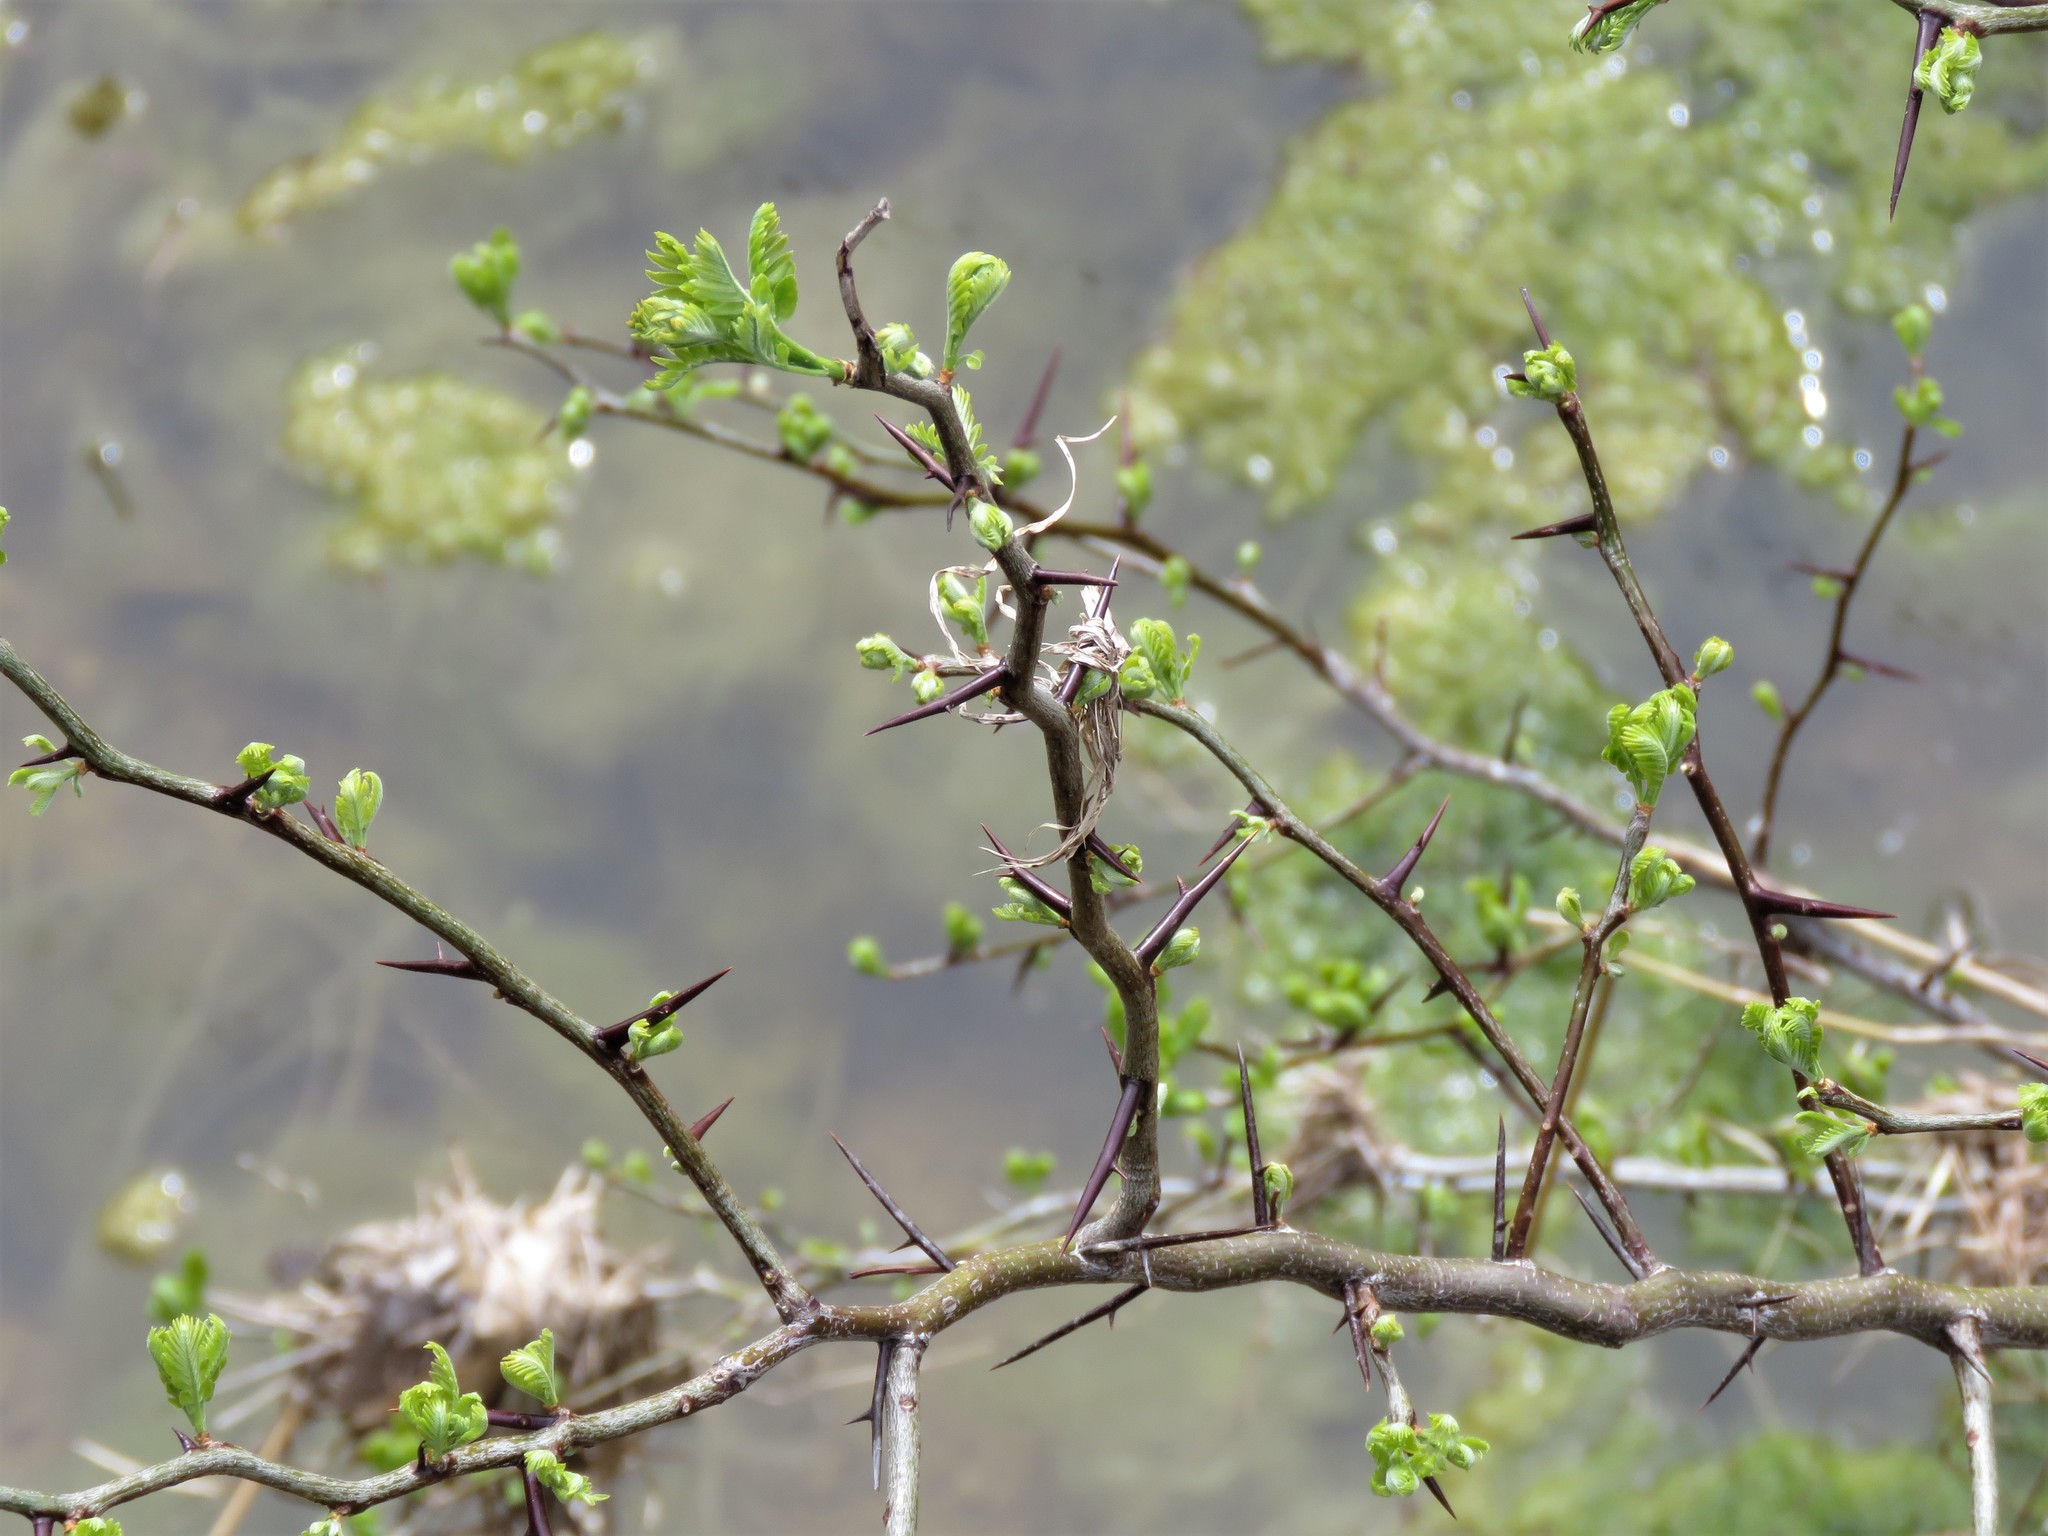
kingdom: Plantae
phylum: Tracheophyta
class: Magnoliopsida
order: Fabales
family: Fabaceae
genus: Gleditsia
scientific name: Gleditsia triacanthos
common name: Common honeylocust
